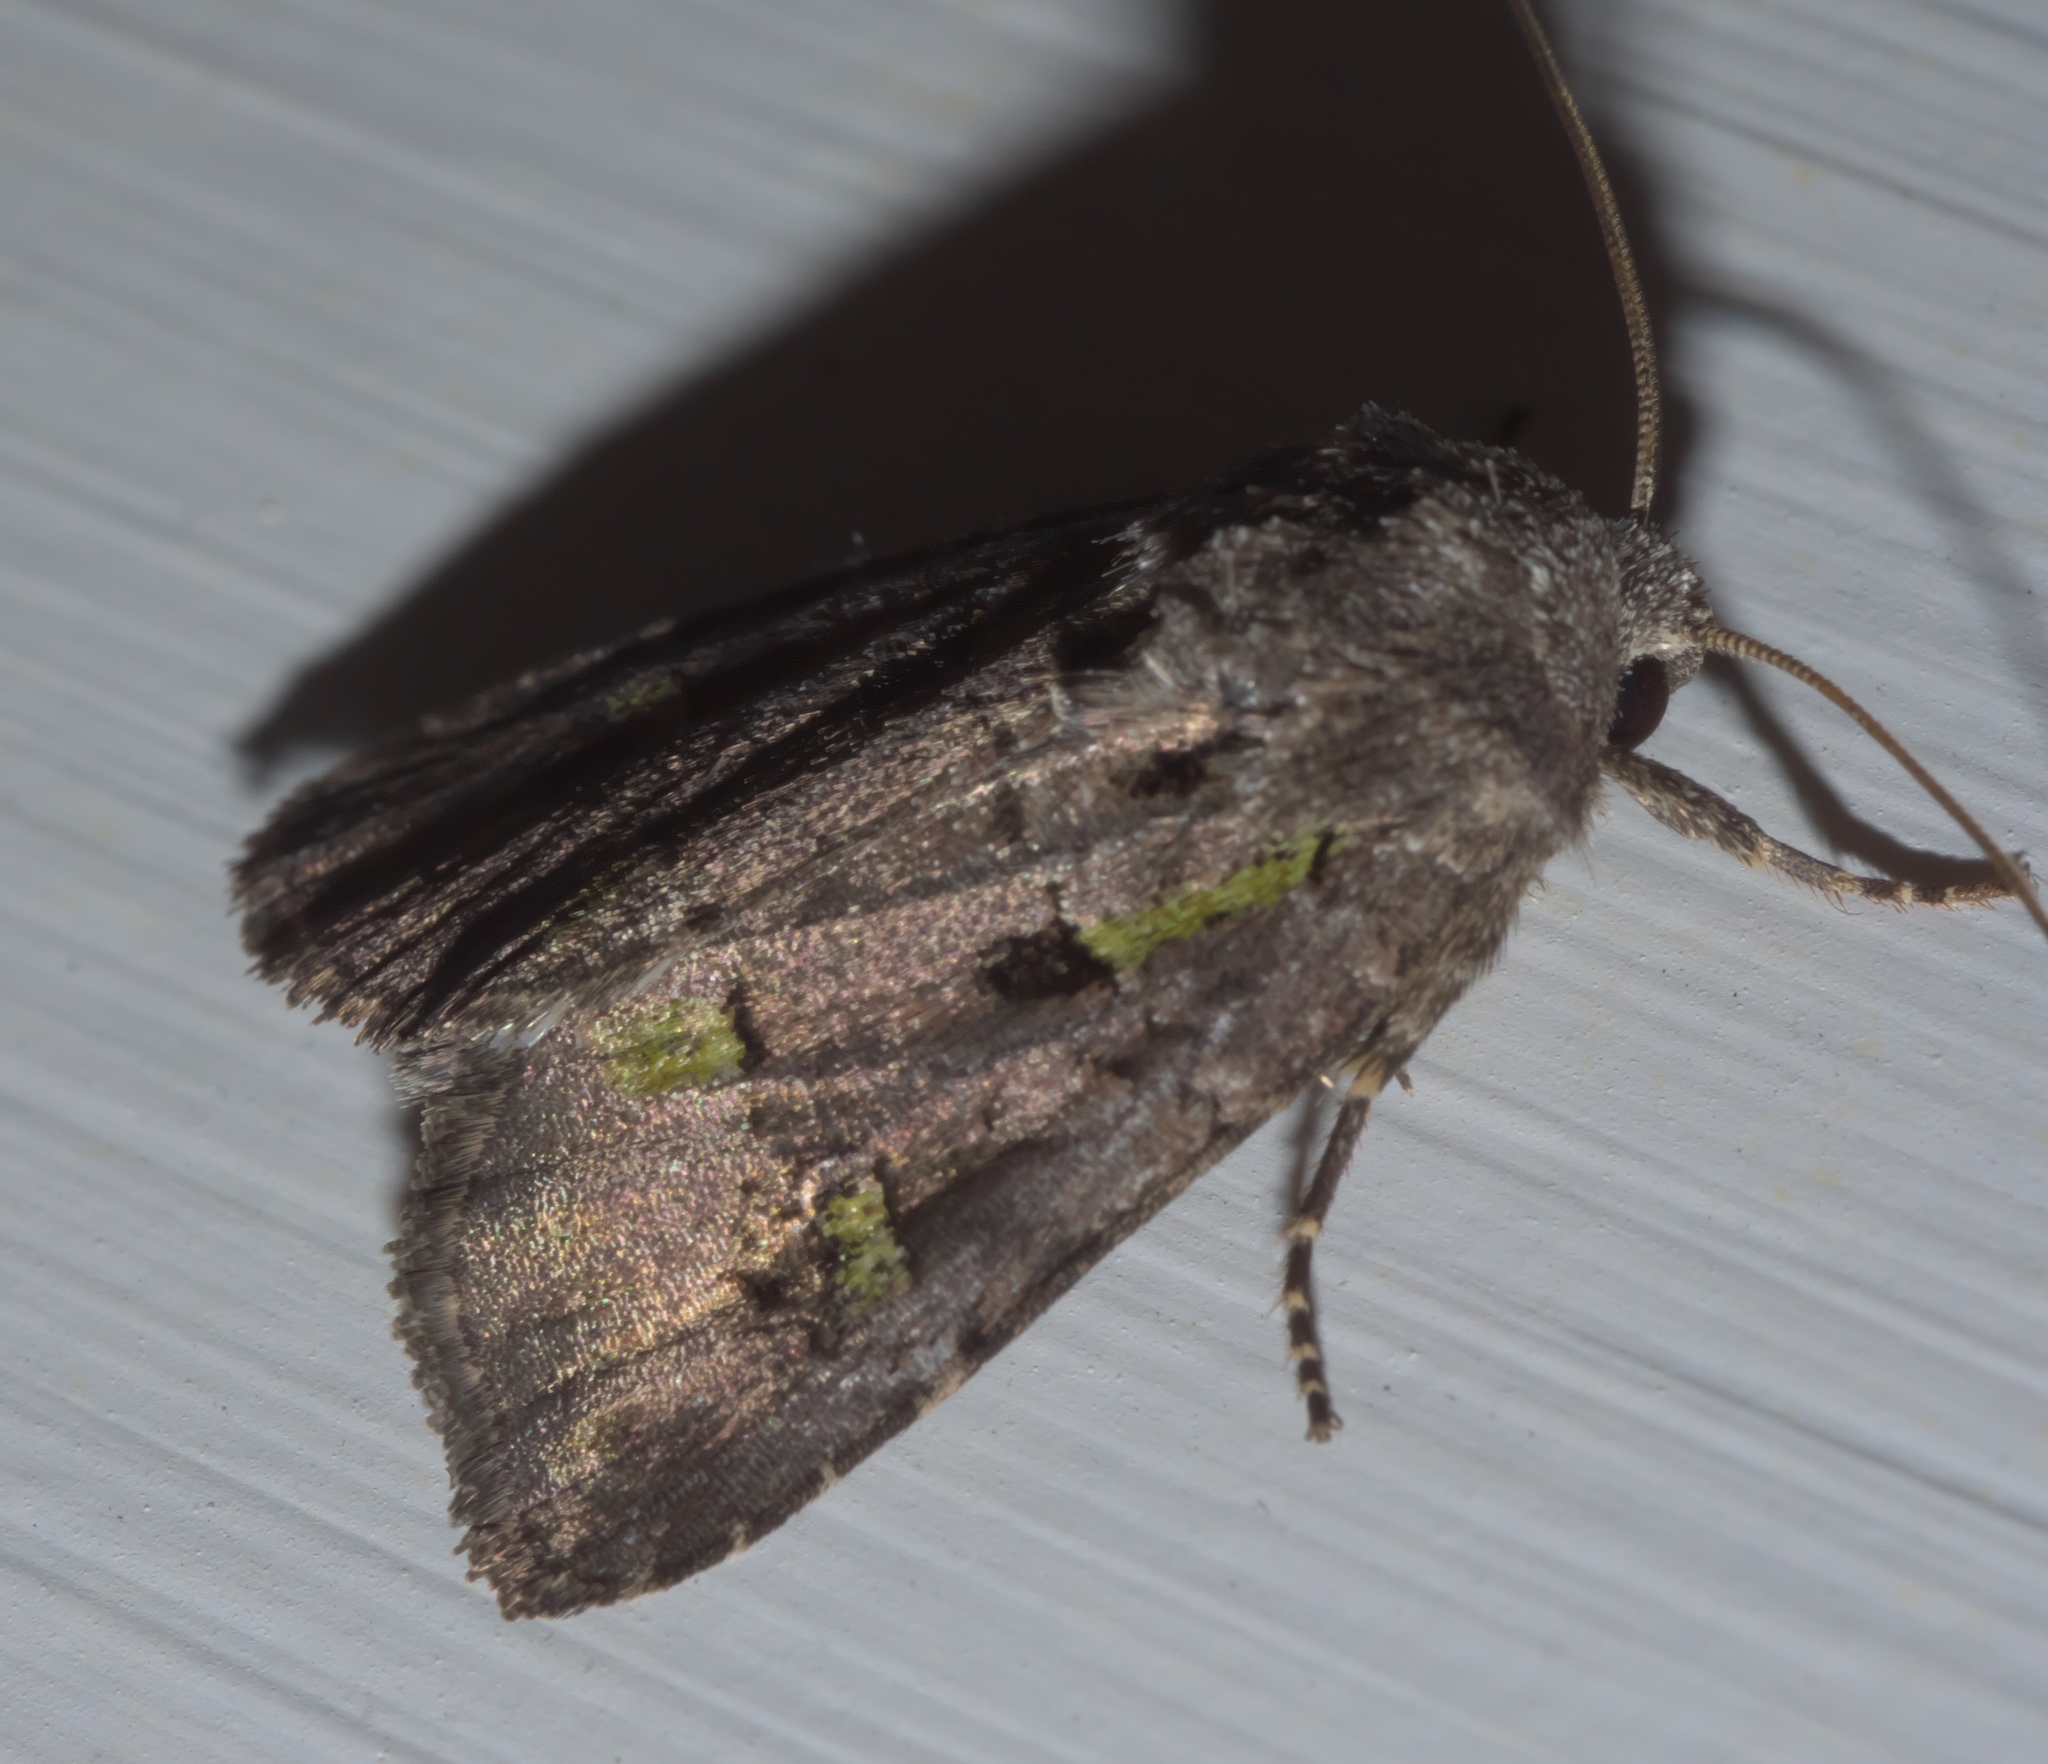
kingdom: Animalia
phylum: Arthropoda
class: Insecta
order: Lepidoptera
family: Noctuidae
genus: Lacinipolia
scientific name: Lacinipolia renigera
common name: Kidney-spotted minor
